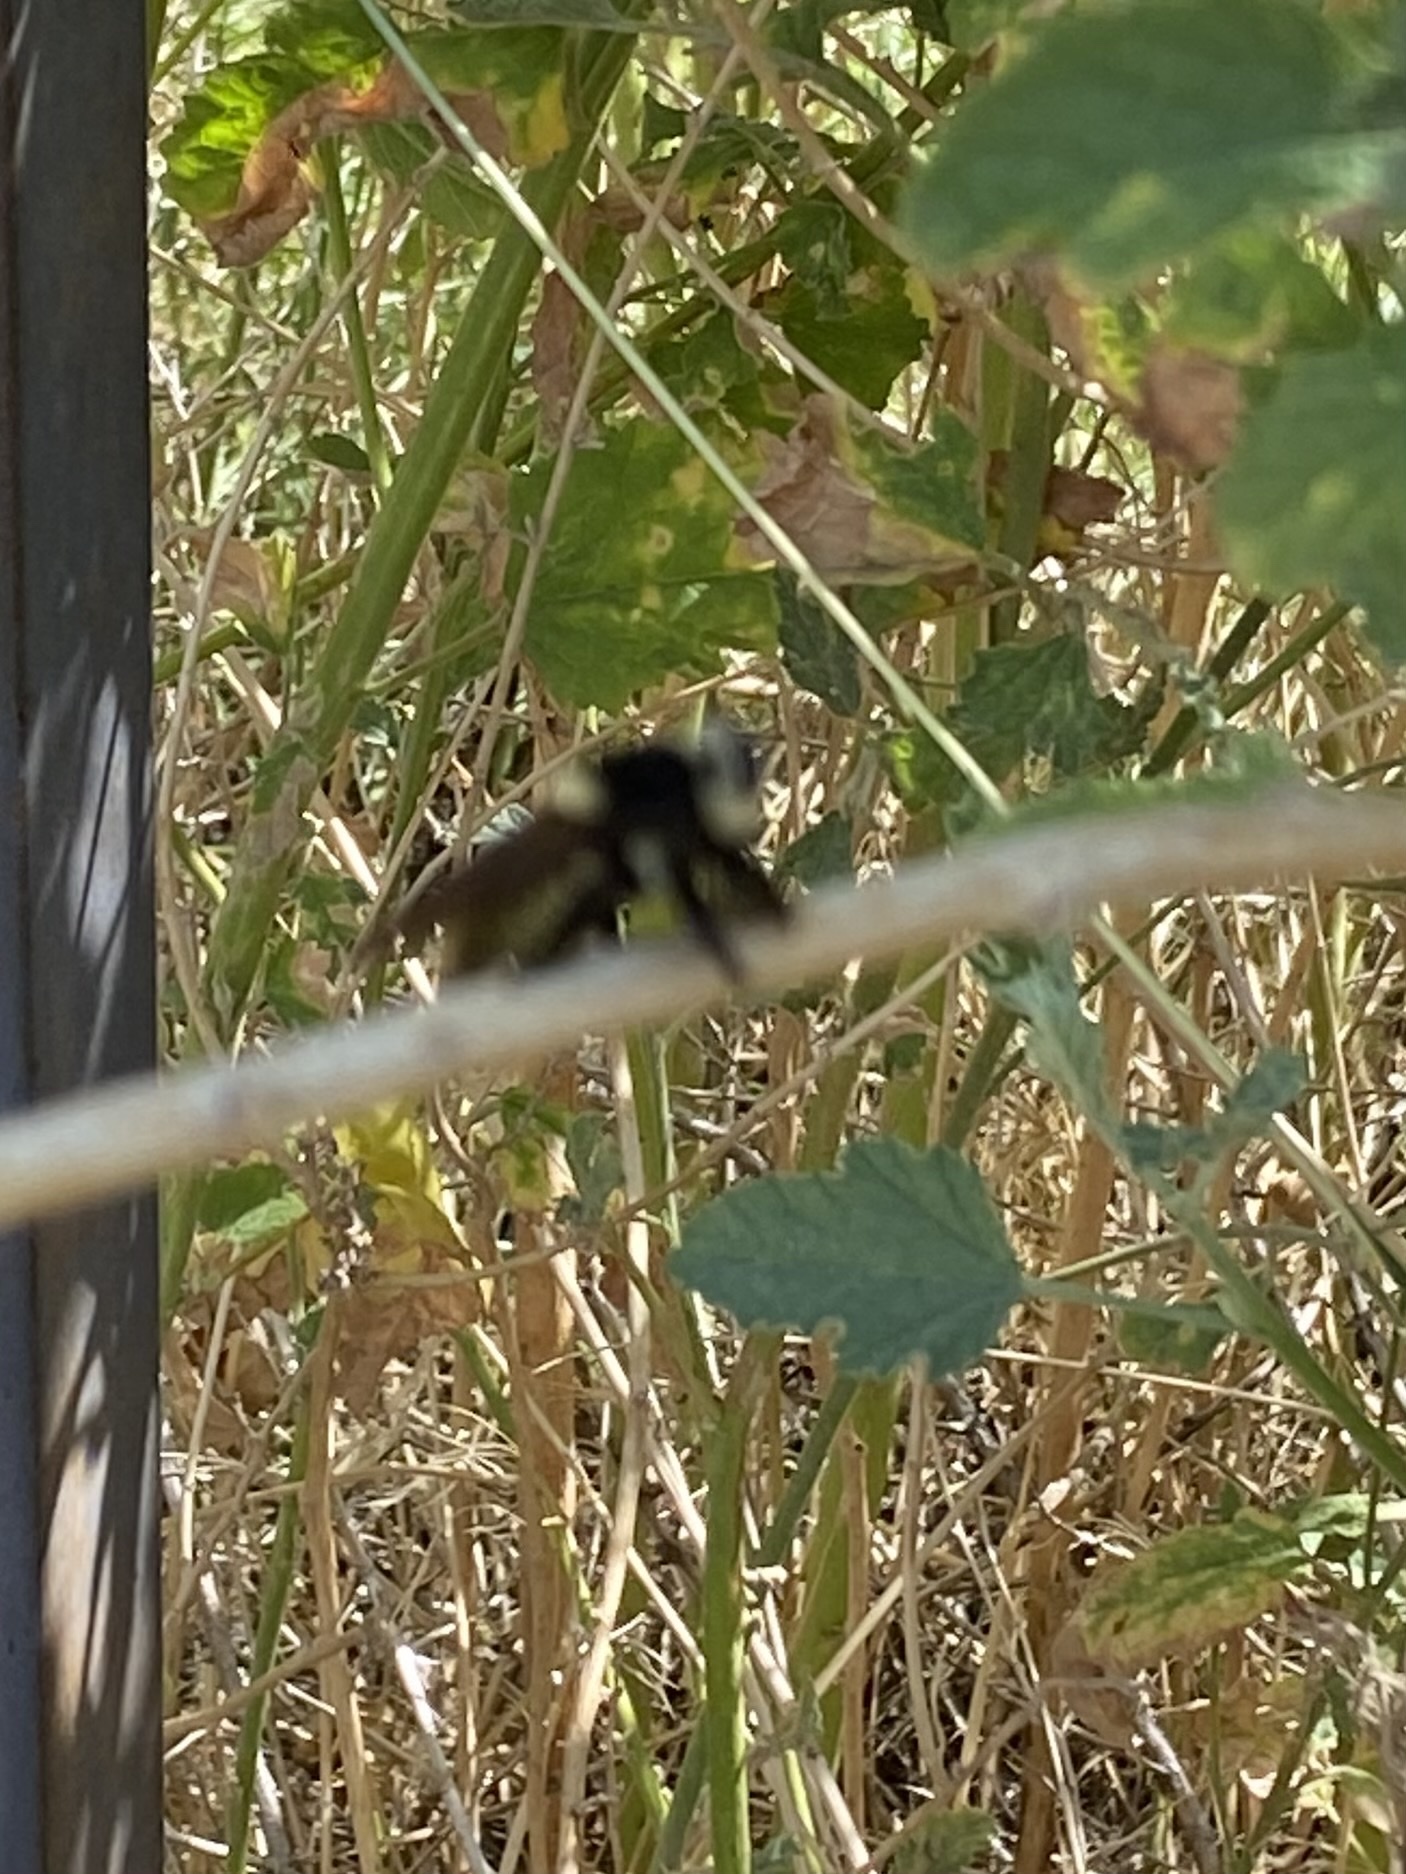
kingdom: Animalia
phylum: Arthropoda
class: Insecta
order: Diptera
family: Asilidae
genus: Mallophora
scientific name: Mallophora fautrix
